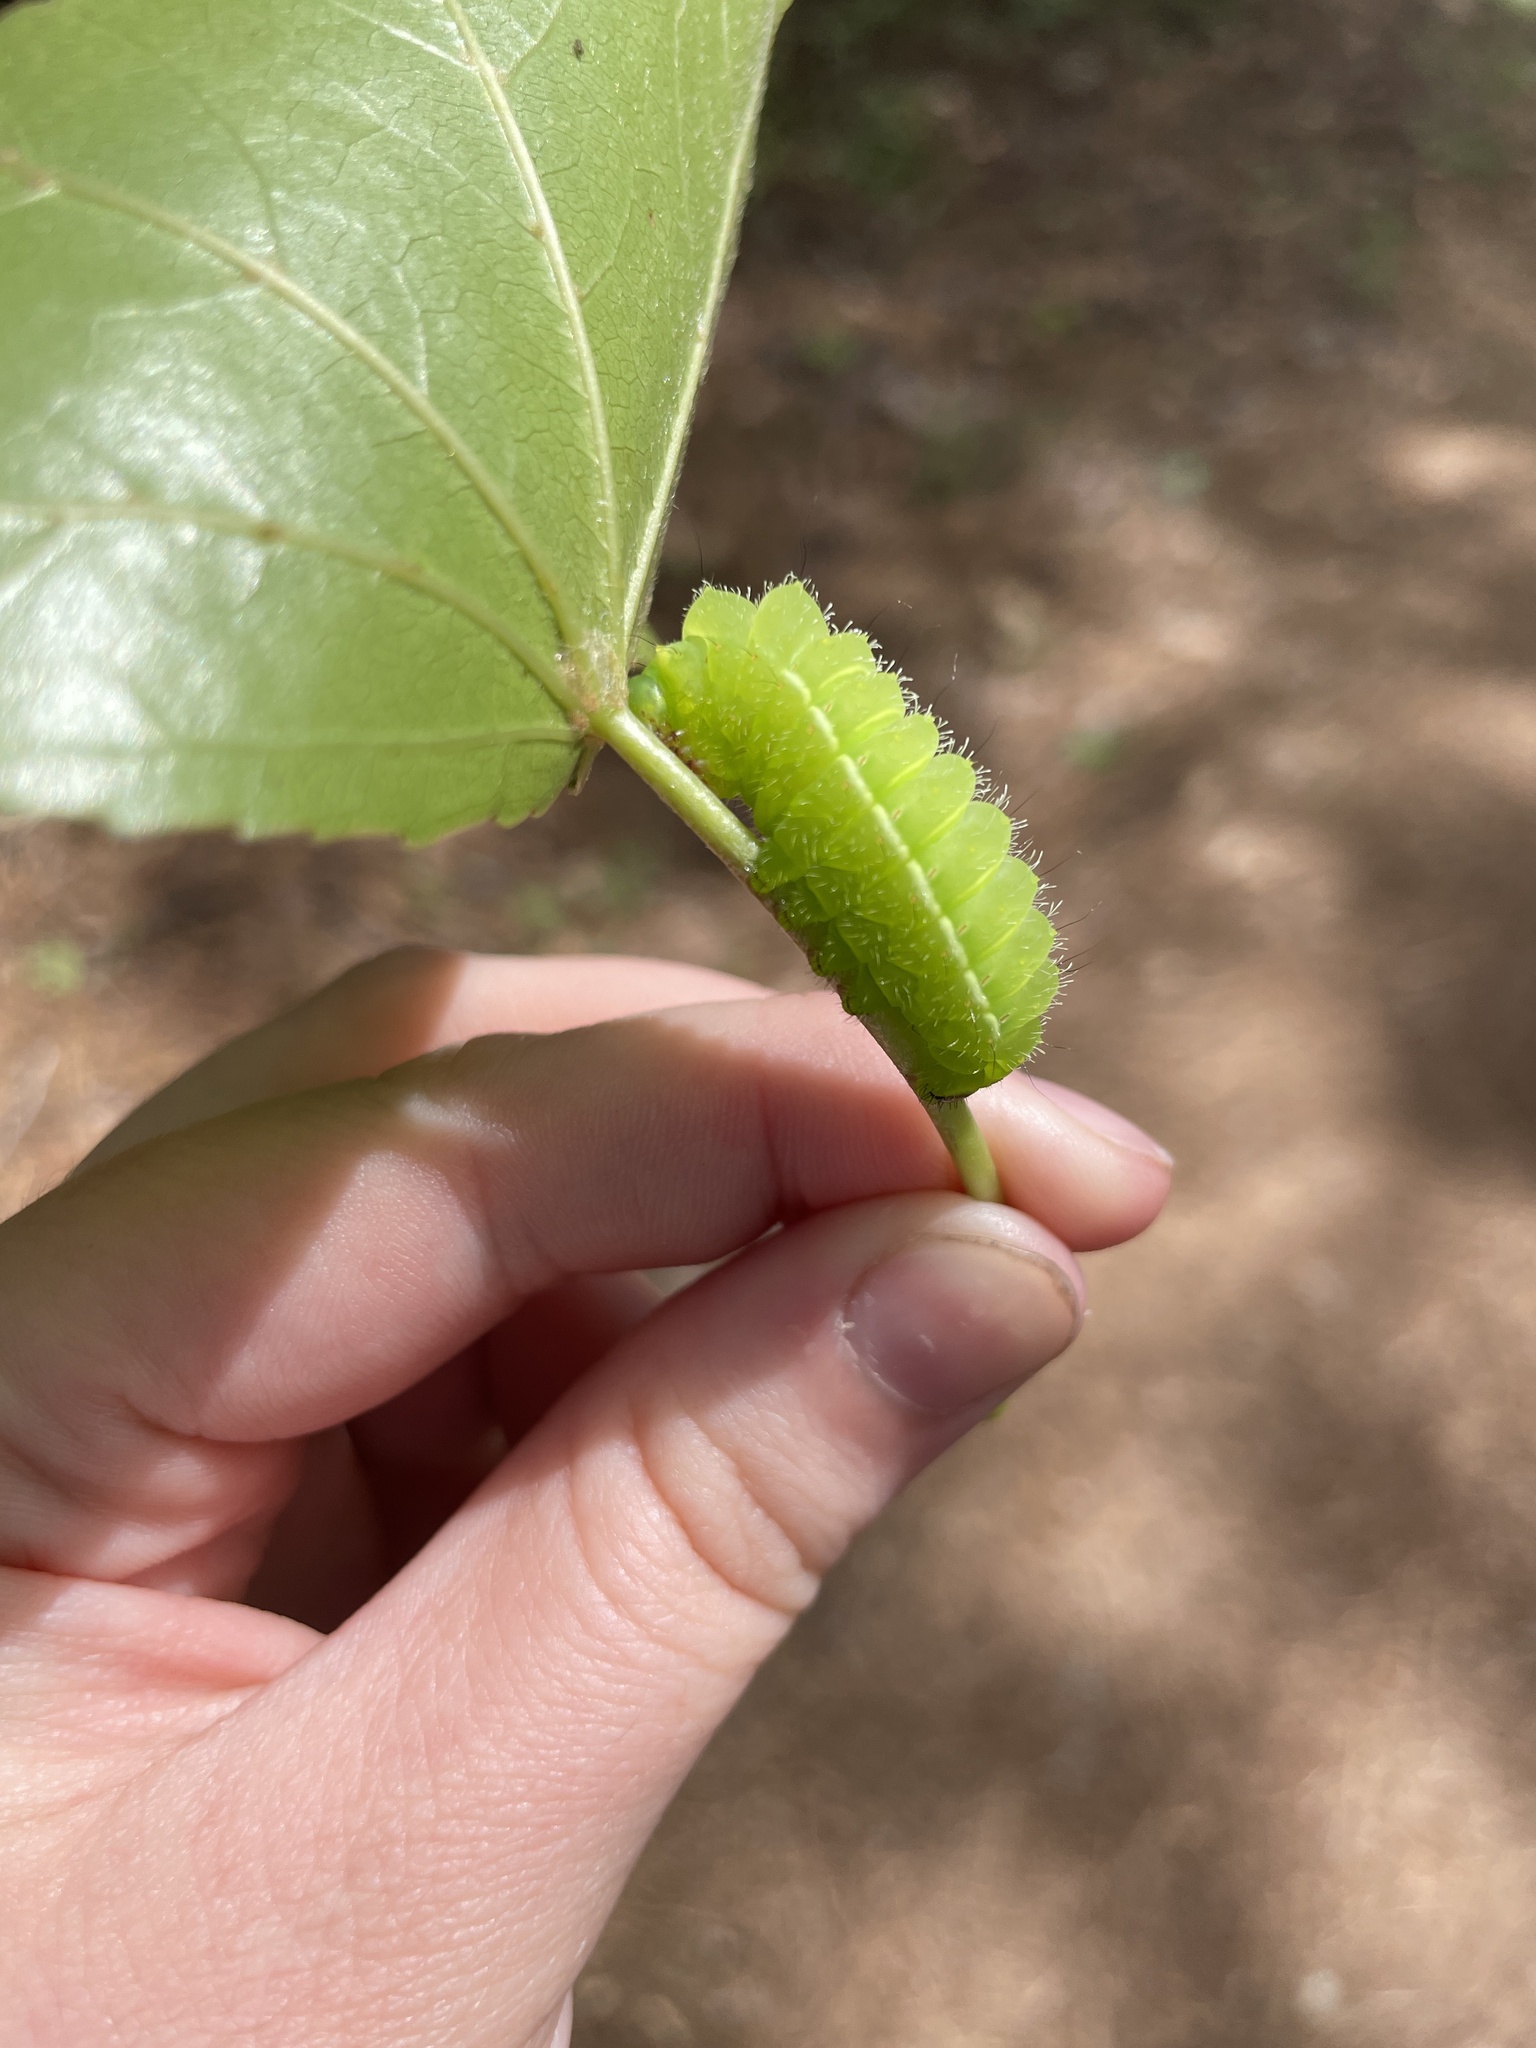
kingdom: Animalia
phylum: Arthropoda
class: Insecta
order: Lepidoptera
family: Saturniidae
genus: Actias
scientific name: Actias luna
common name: Luna moth
